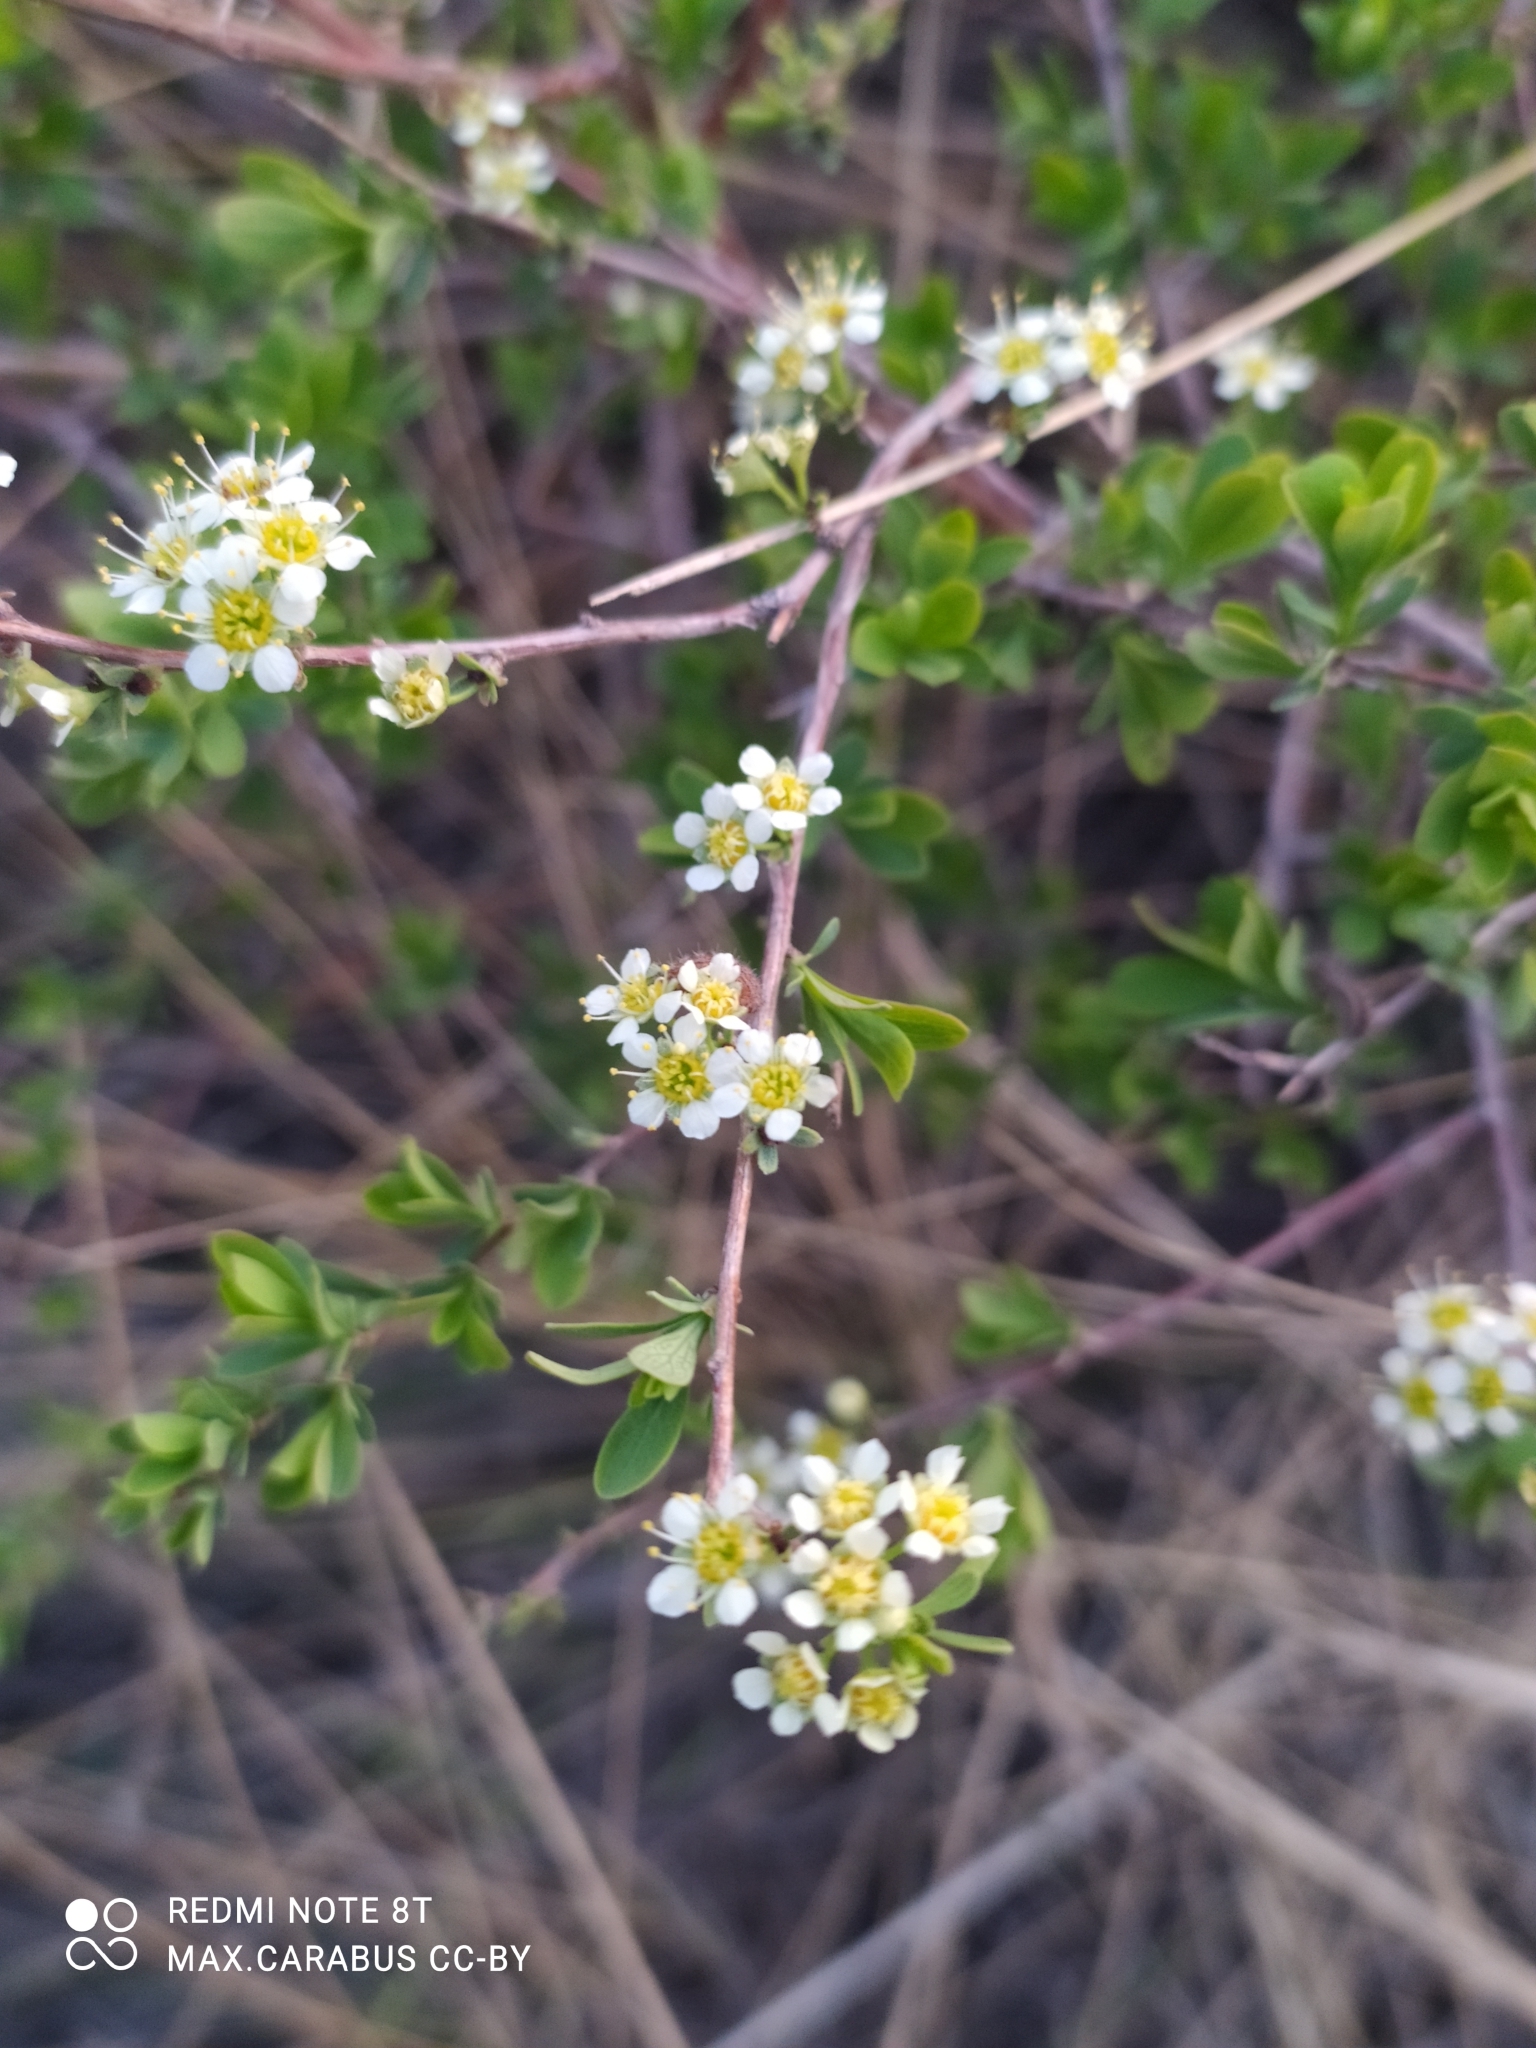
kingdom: Plantae
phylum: Tracheophyta
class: Magnoliopsida
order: Rosales
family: Rosaceae
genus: Spiraea
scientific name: Spiraea hypericifolia
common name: Iberian spirea
